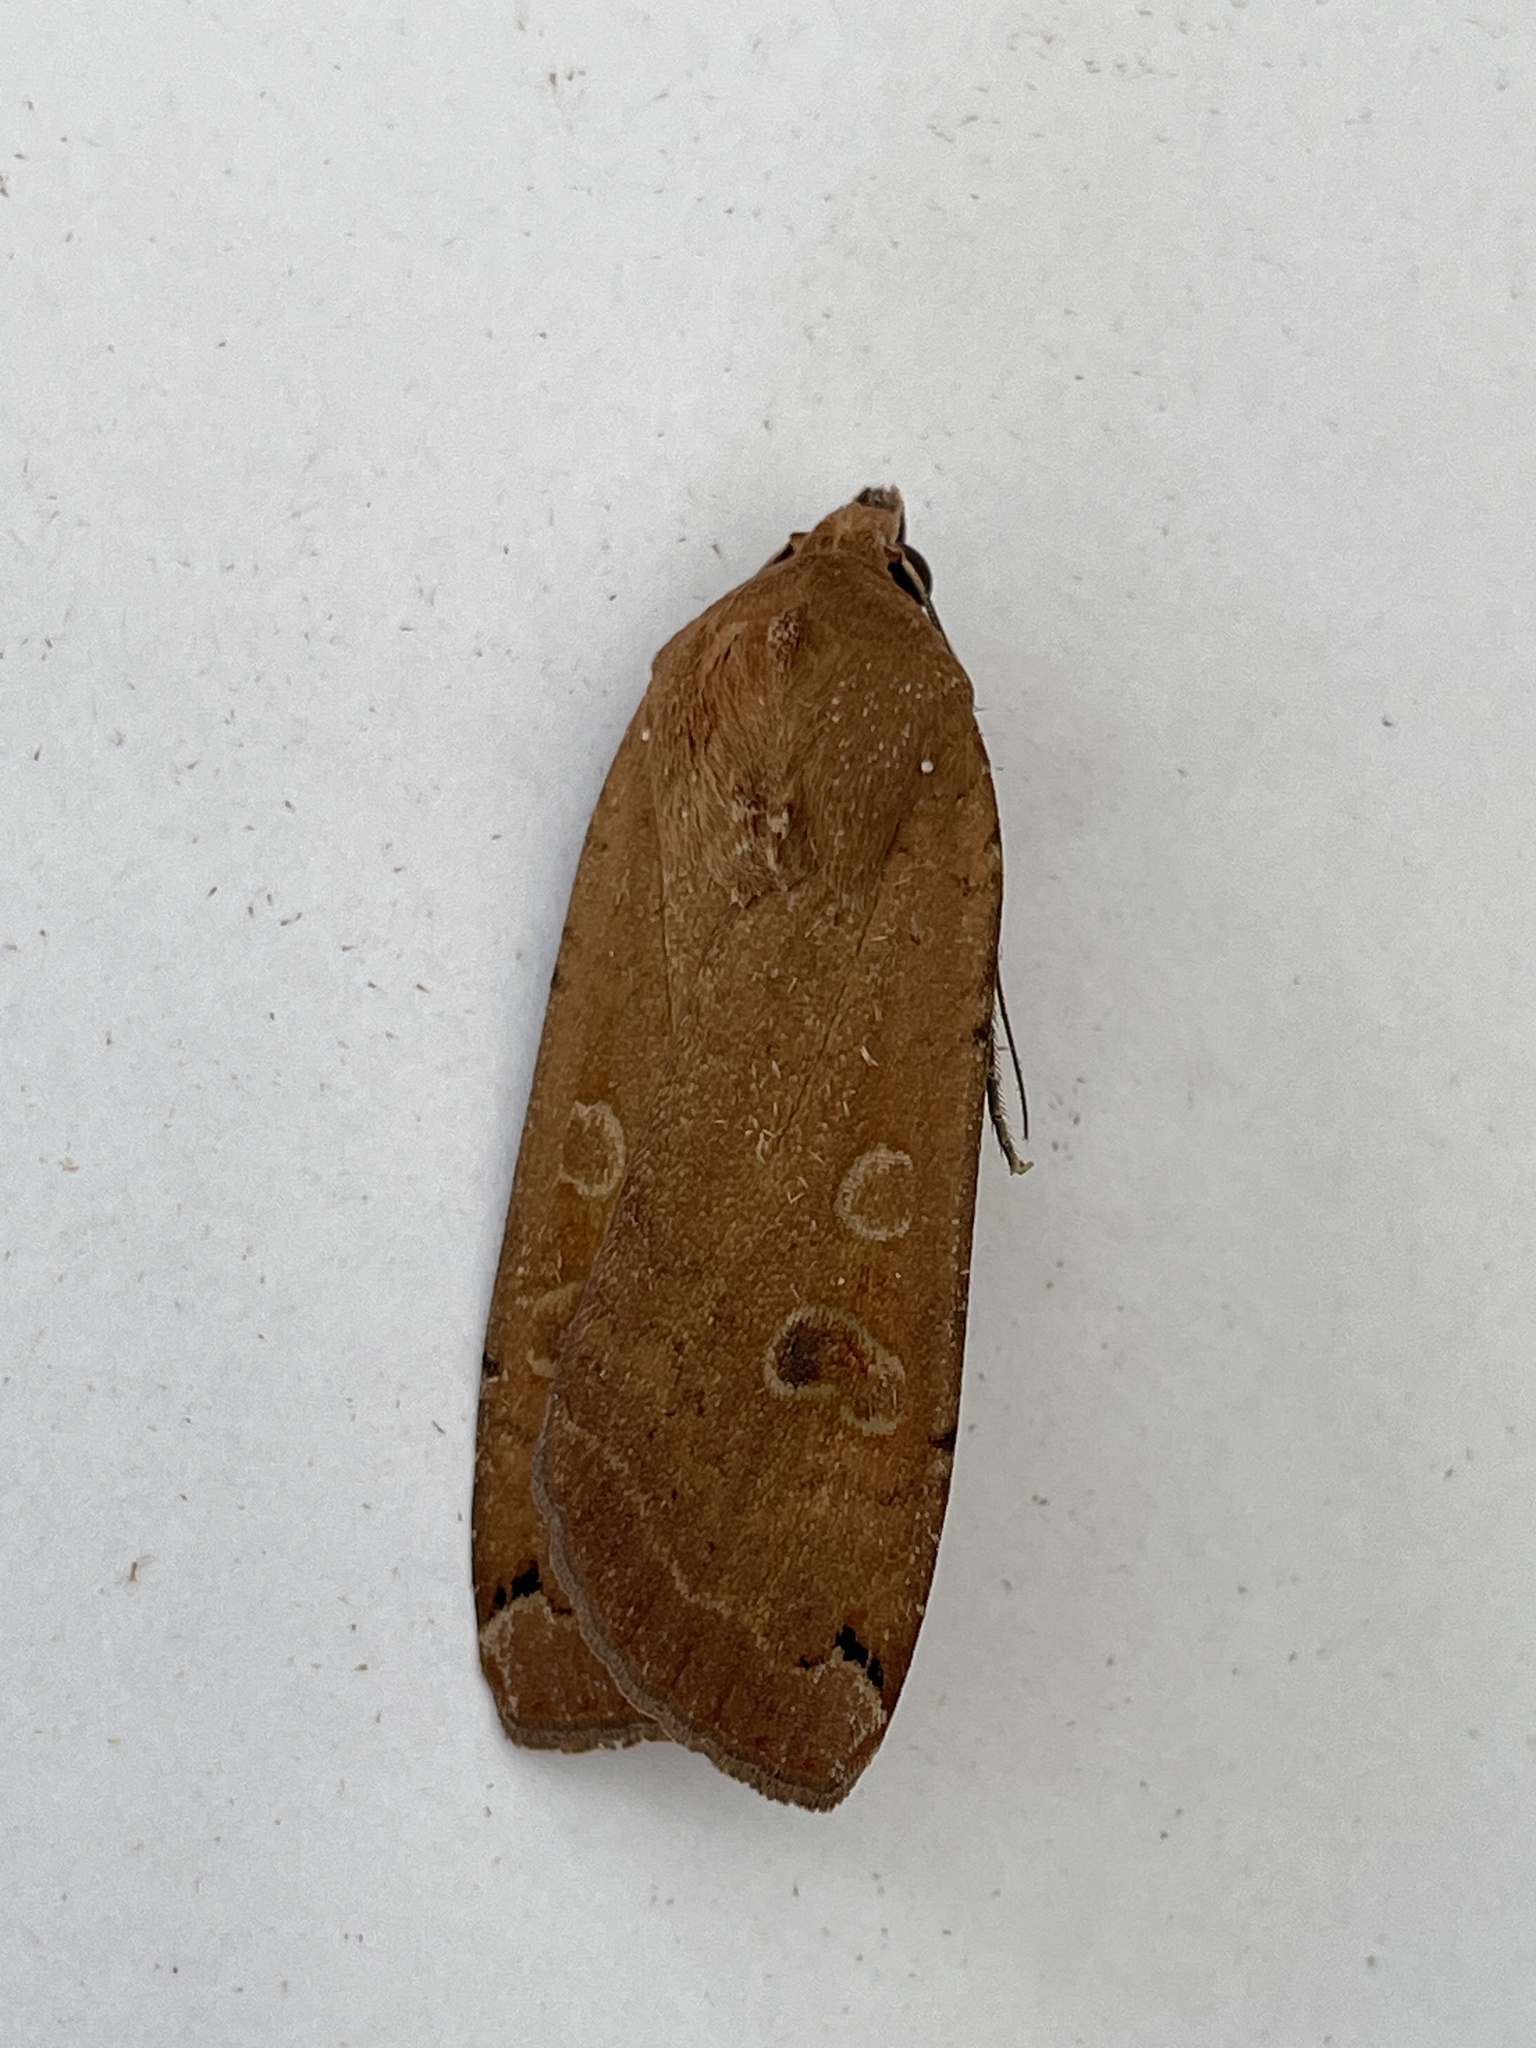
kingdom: Animalia
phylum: Arthropoda
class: Insecta
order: Lepidoptera
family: Noctuidae
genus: Noctua
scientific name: Noctua pronuba
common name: Large yellow underwing
